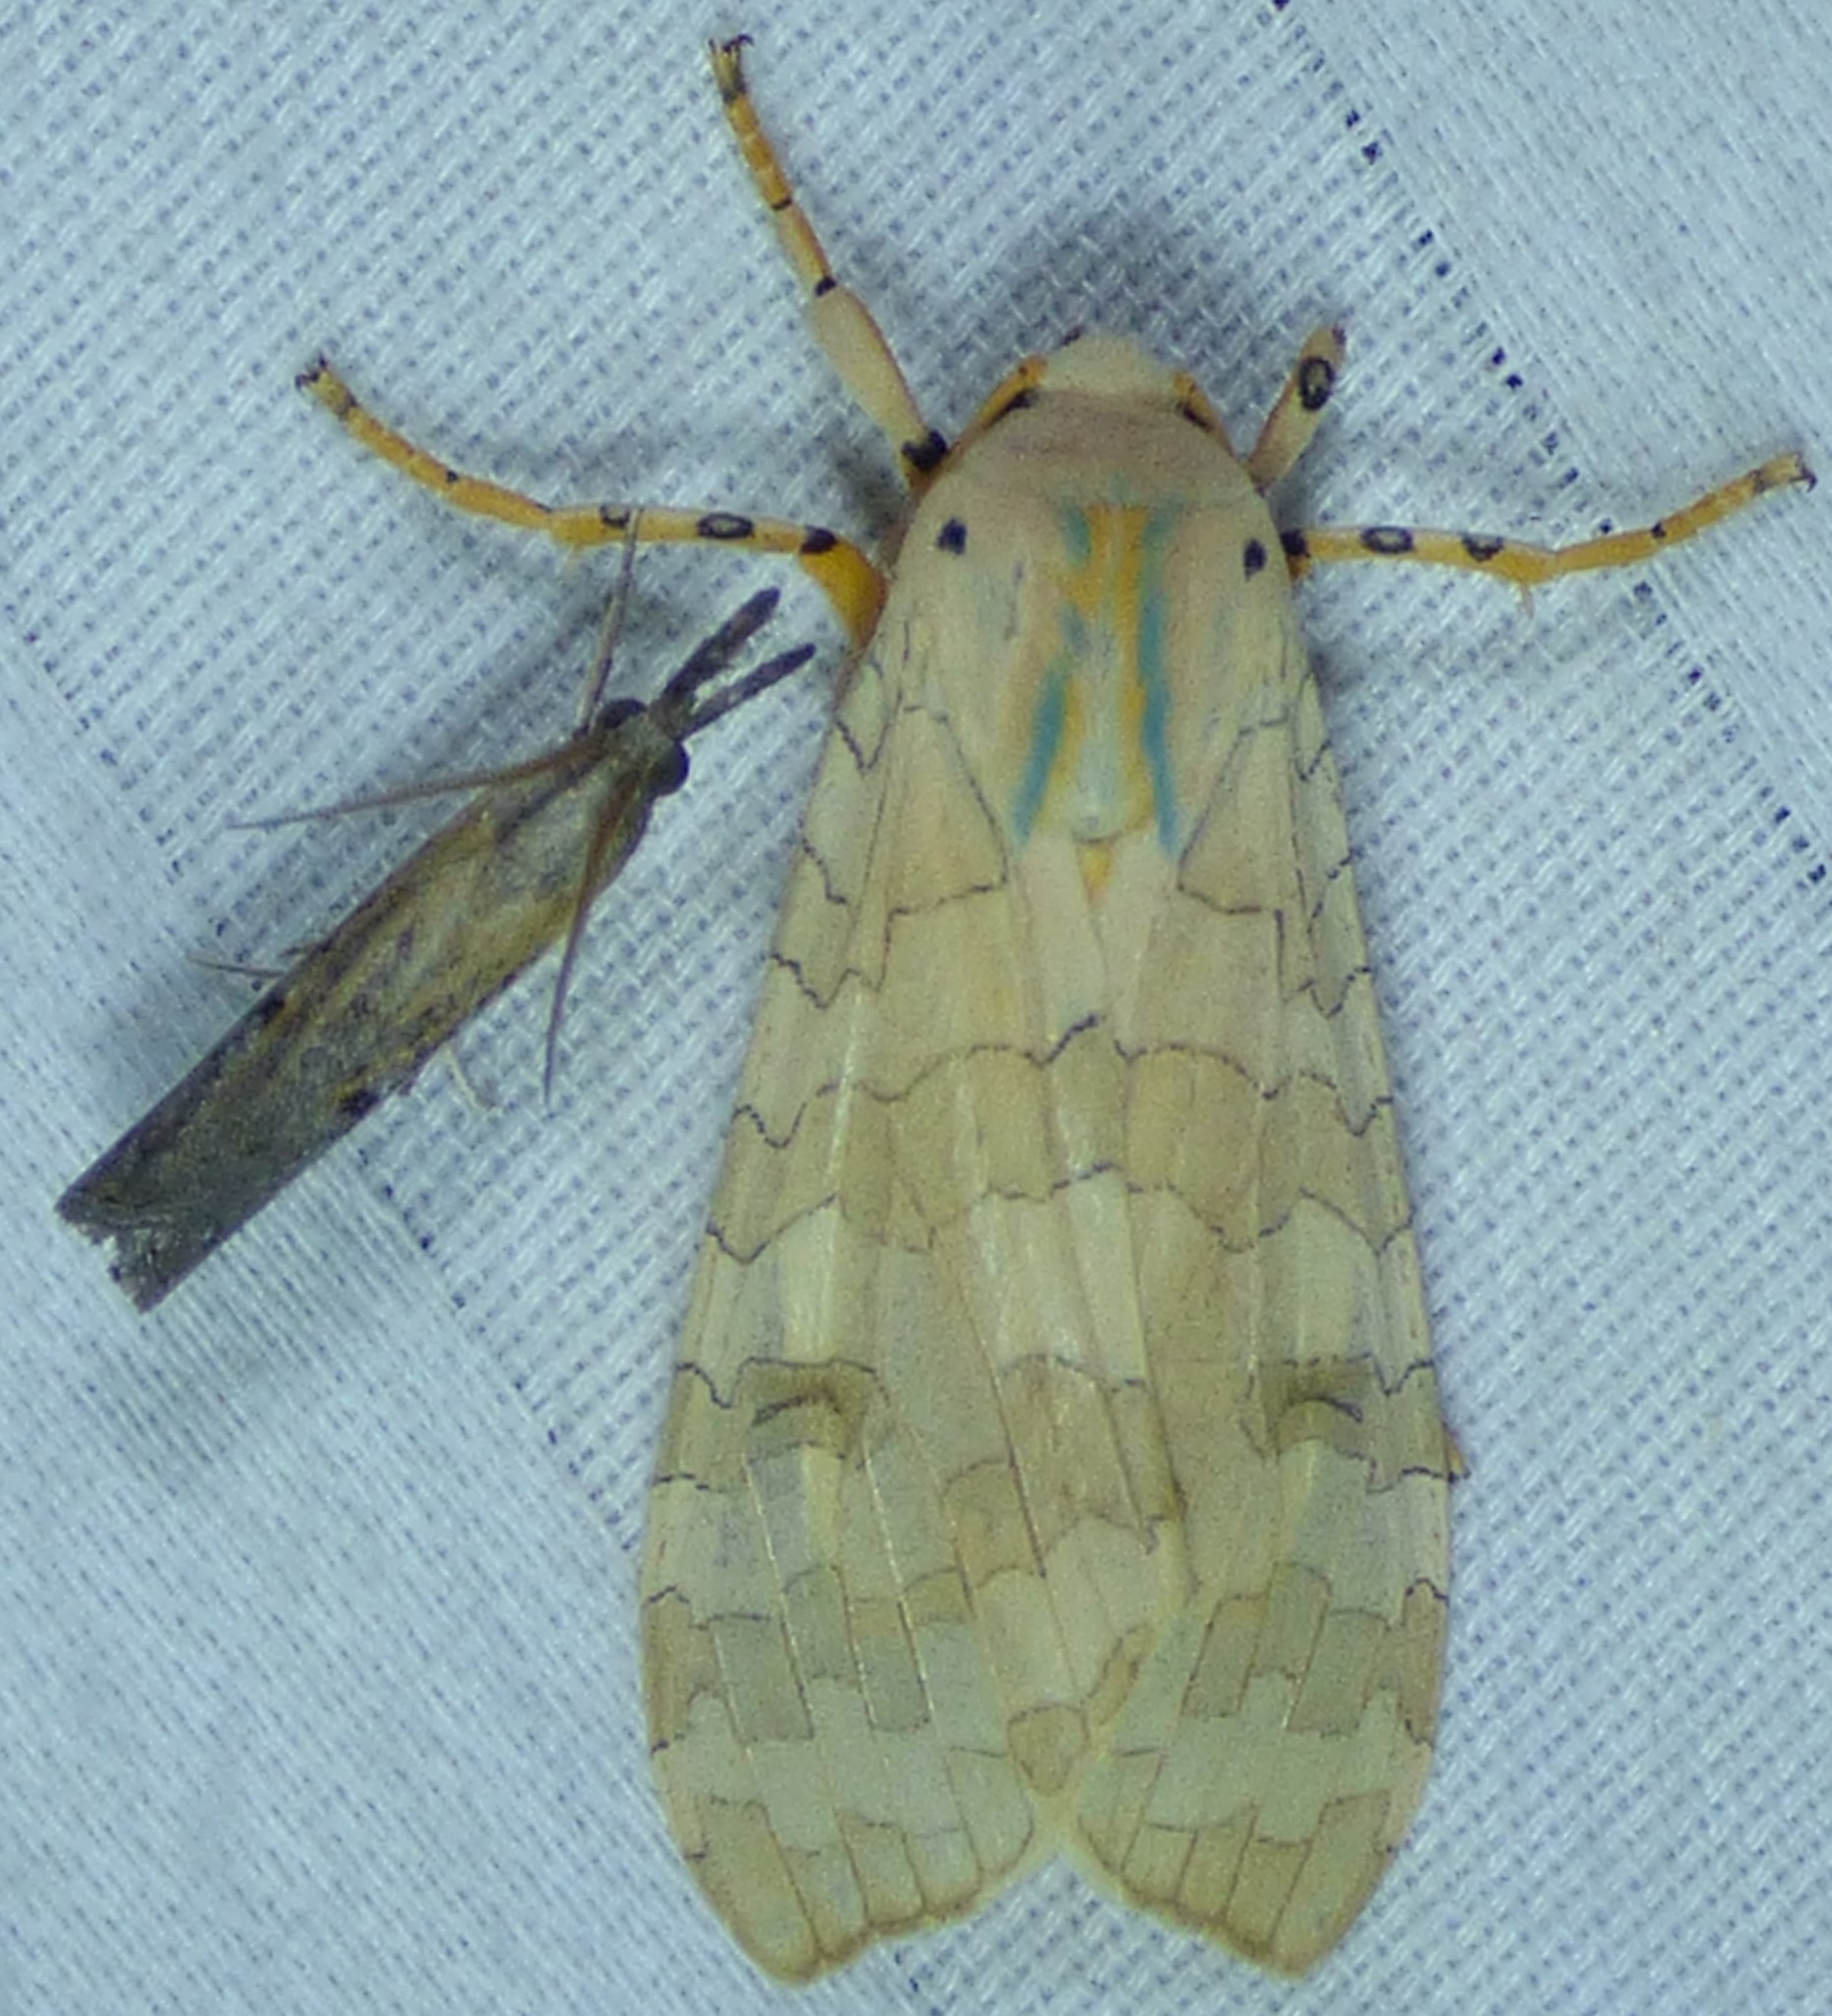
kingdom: Animalia
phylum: Arthropoda
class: Insecta
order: Lepidoptera
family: Erebidae
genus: Halysidota
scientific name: Halysidota
